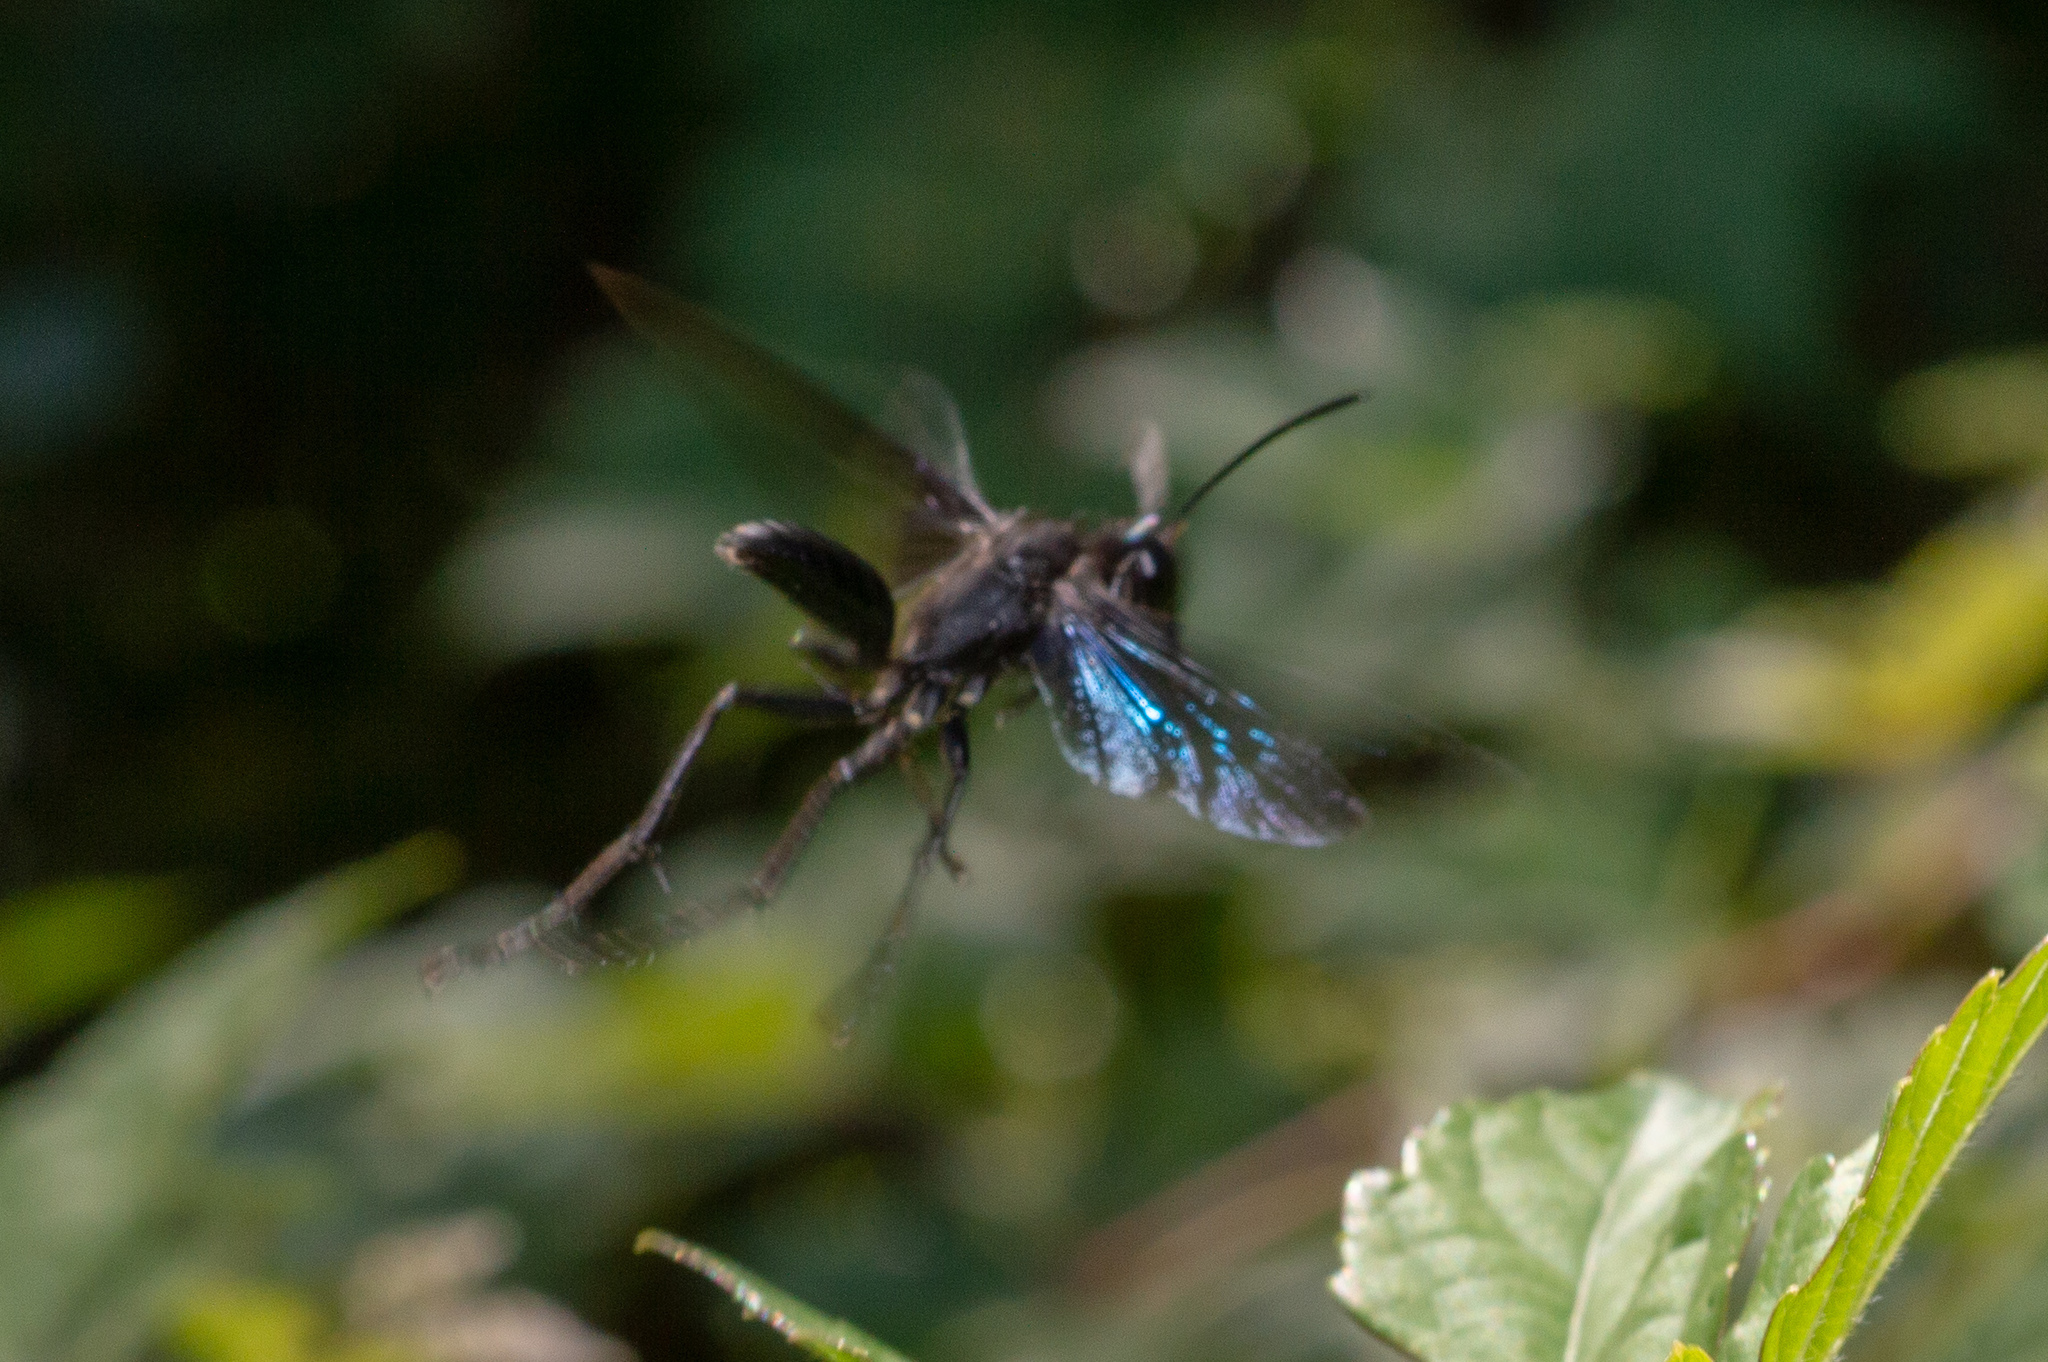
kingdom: Animalia
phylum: Arthropoda
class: Insecta
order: Hymenoptera
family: Sphecidae
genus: Sphex
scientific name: Sphex pensylvanicus
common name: Great black digger wasp
